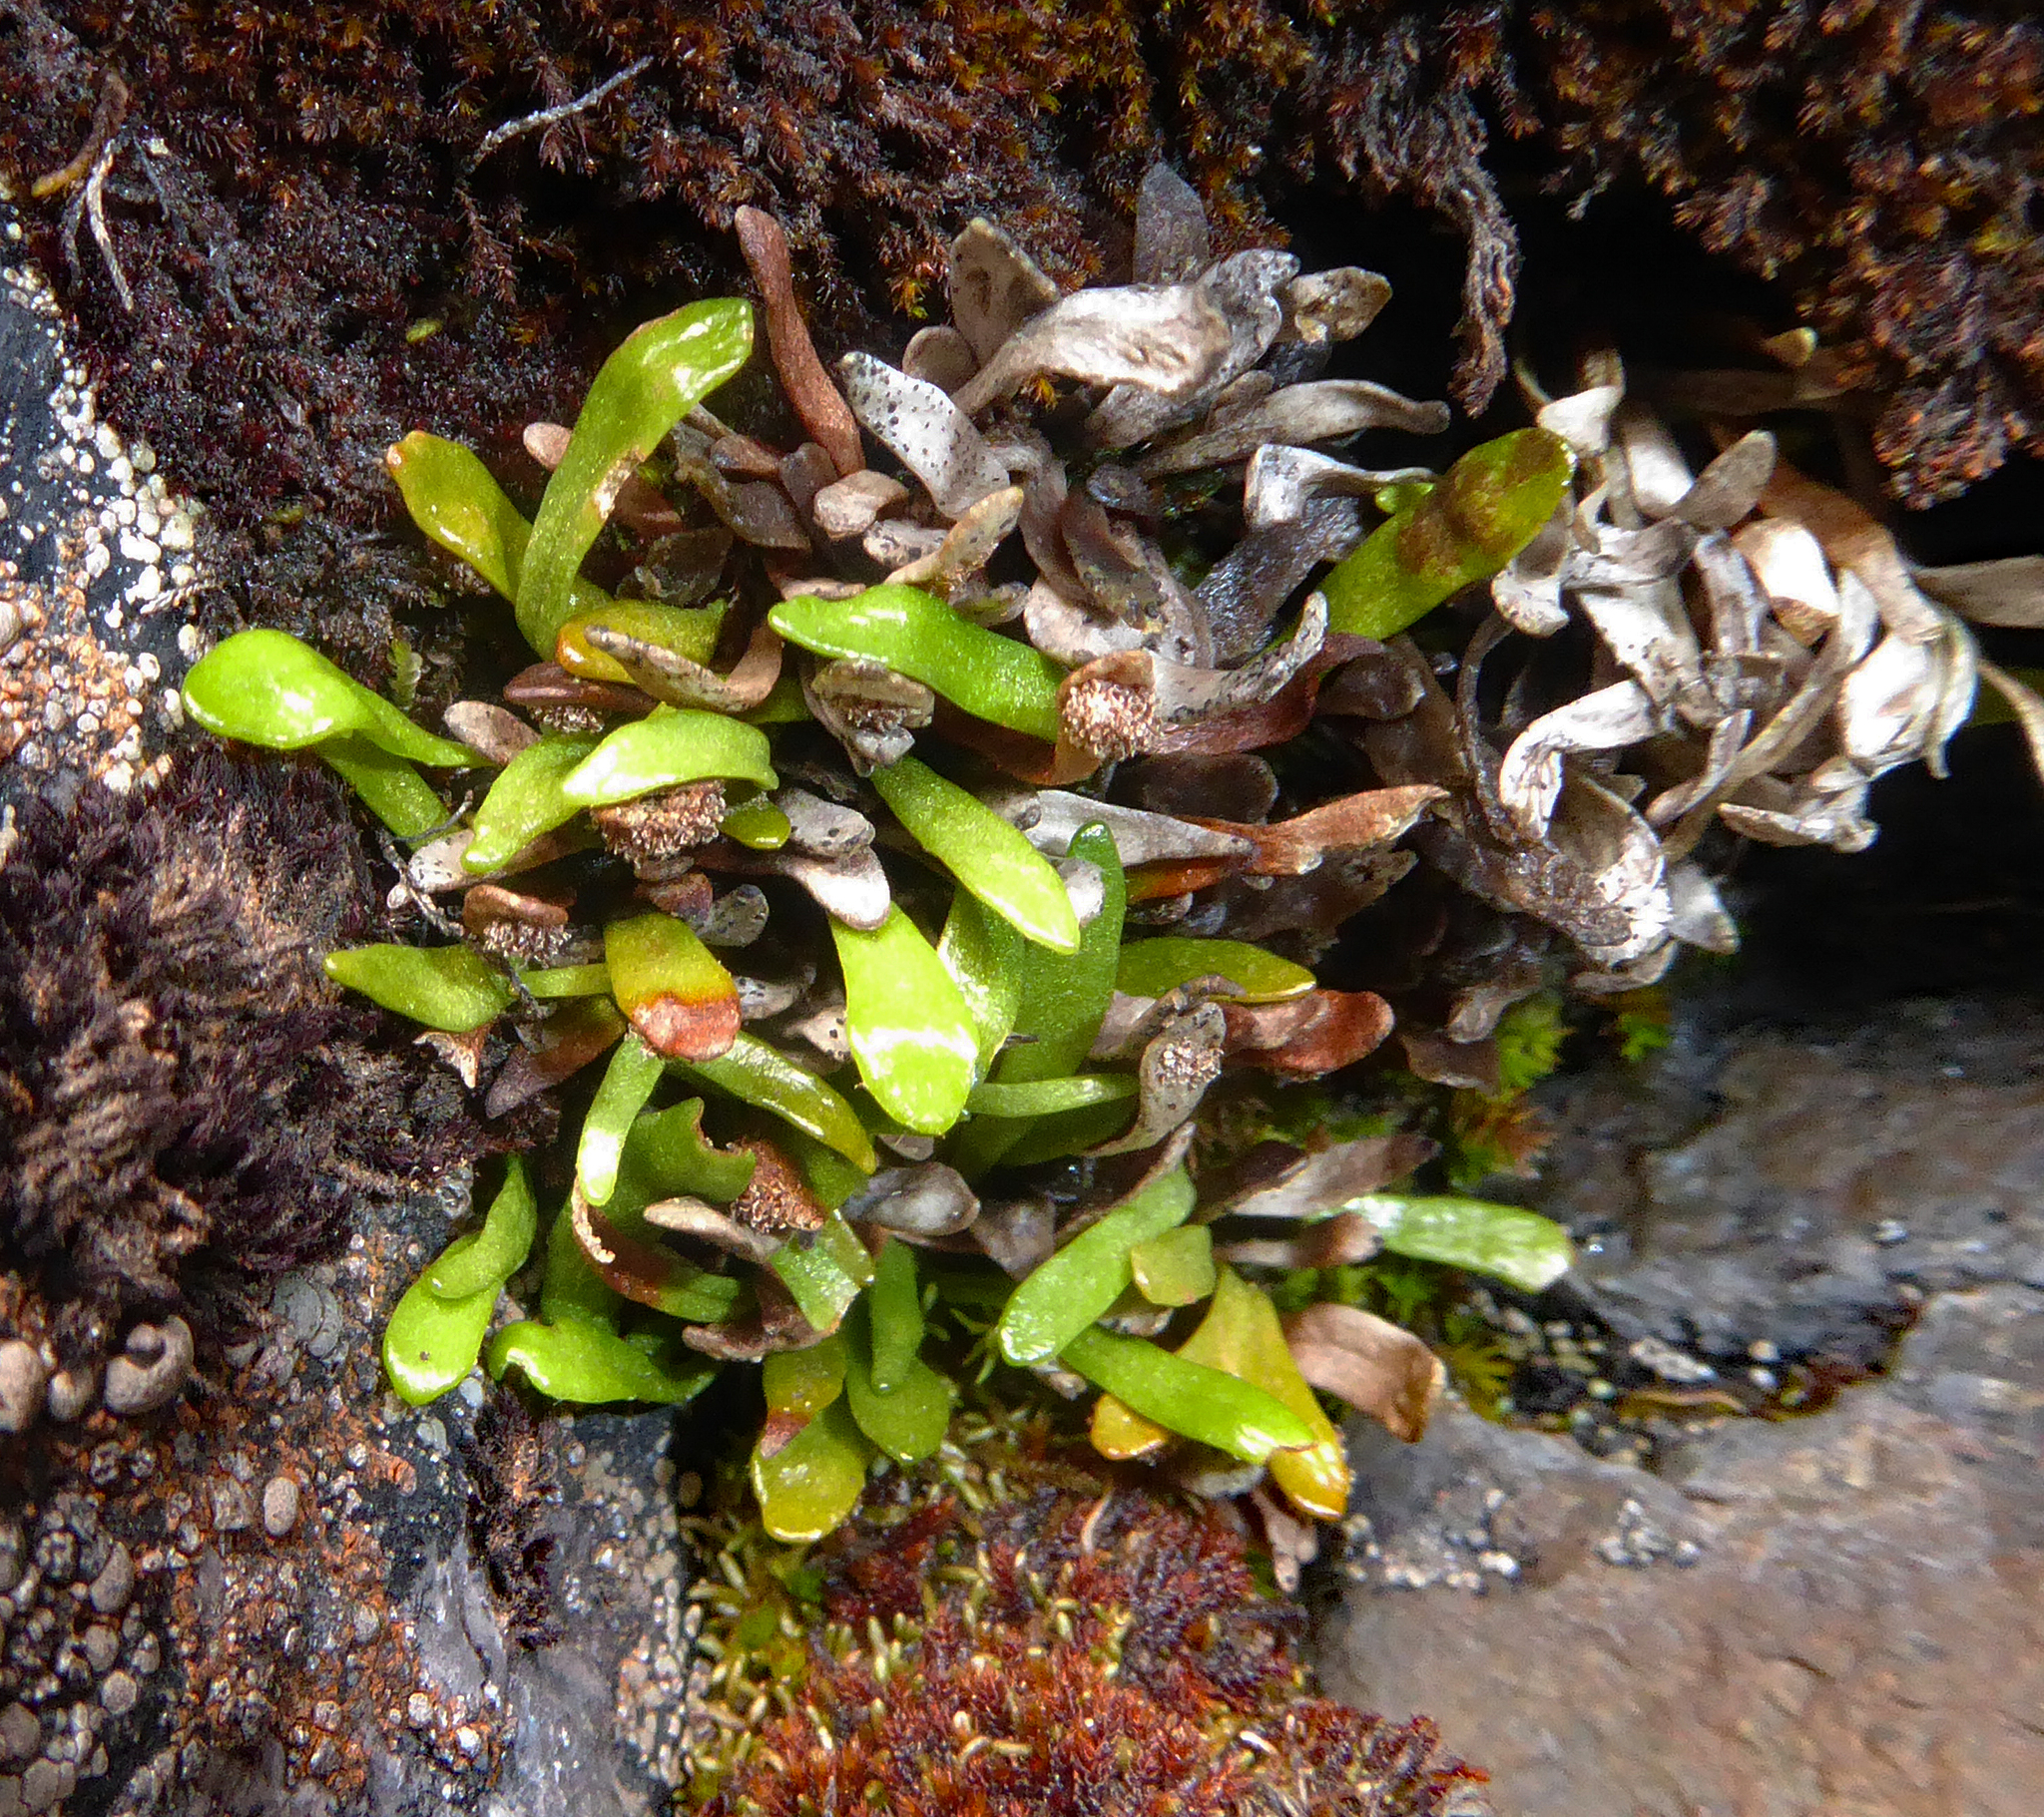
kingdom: Plantae
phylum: Tracheophyta
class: Polypodiopsida
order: Polypodiales
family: Polypodiaceae
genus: Notogrammitis
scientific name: Notogrammitis crassior
